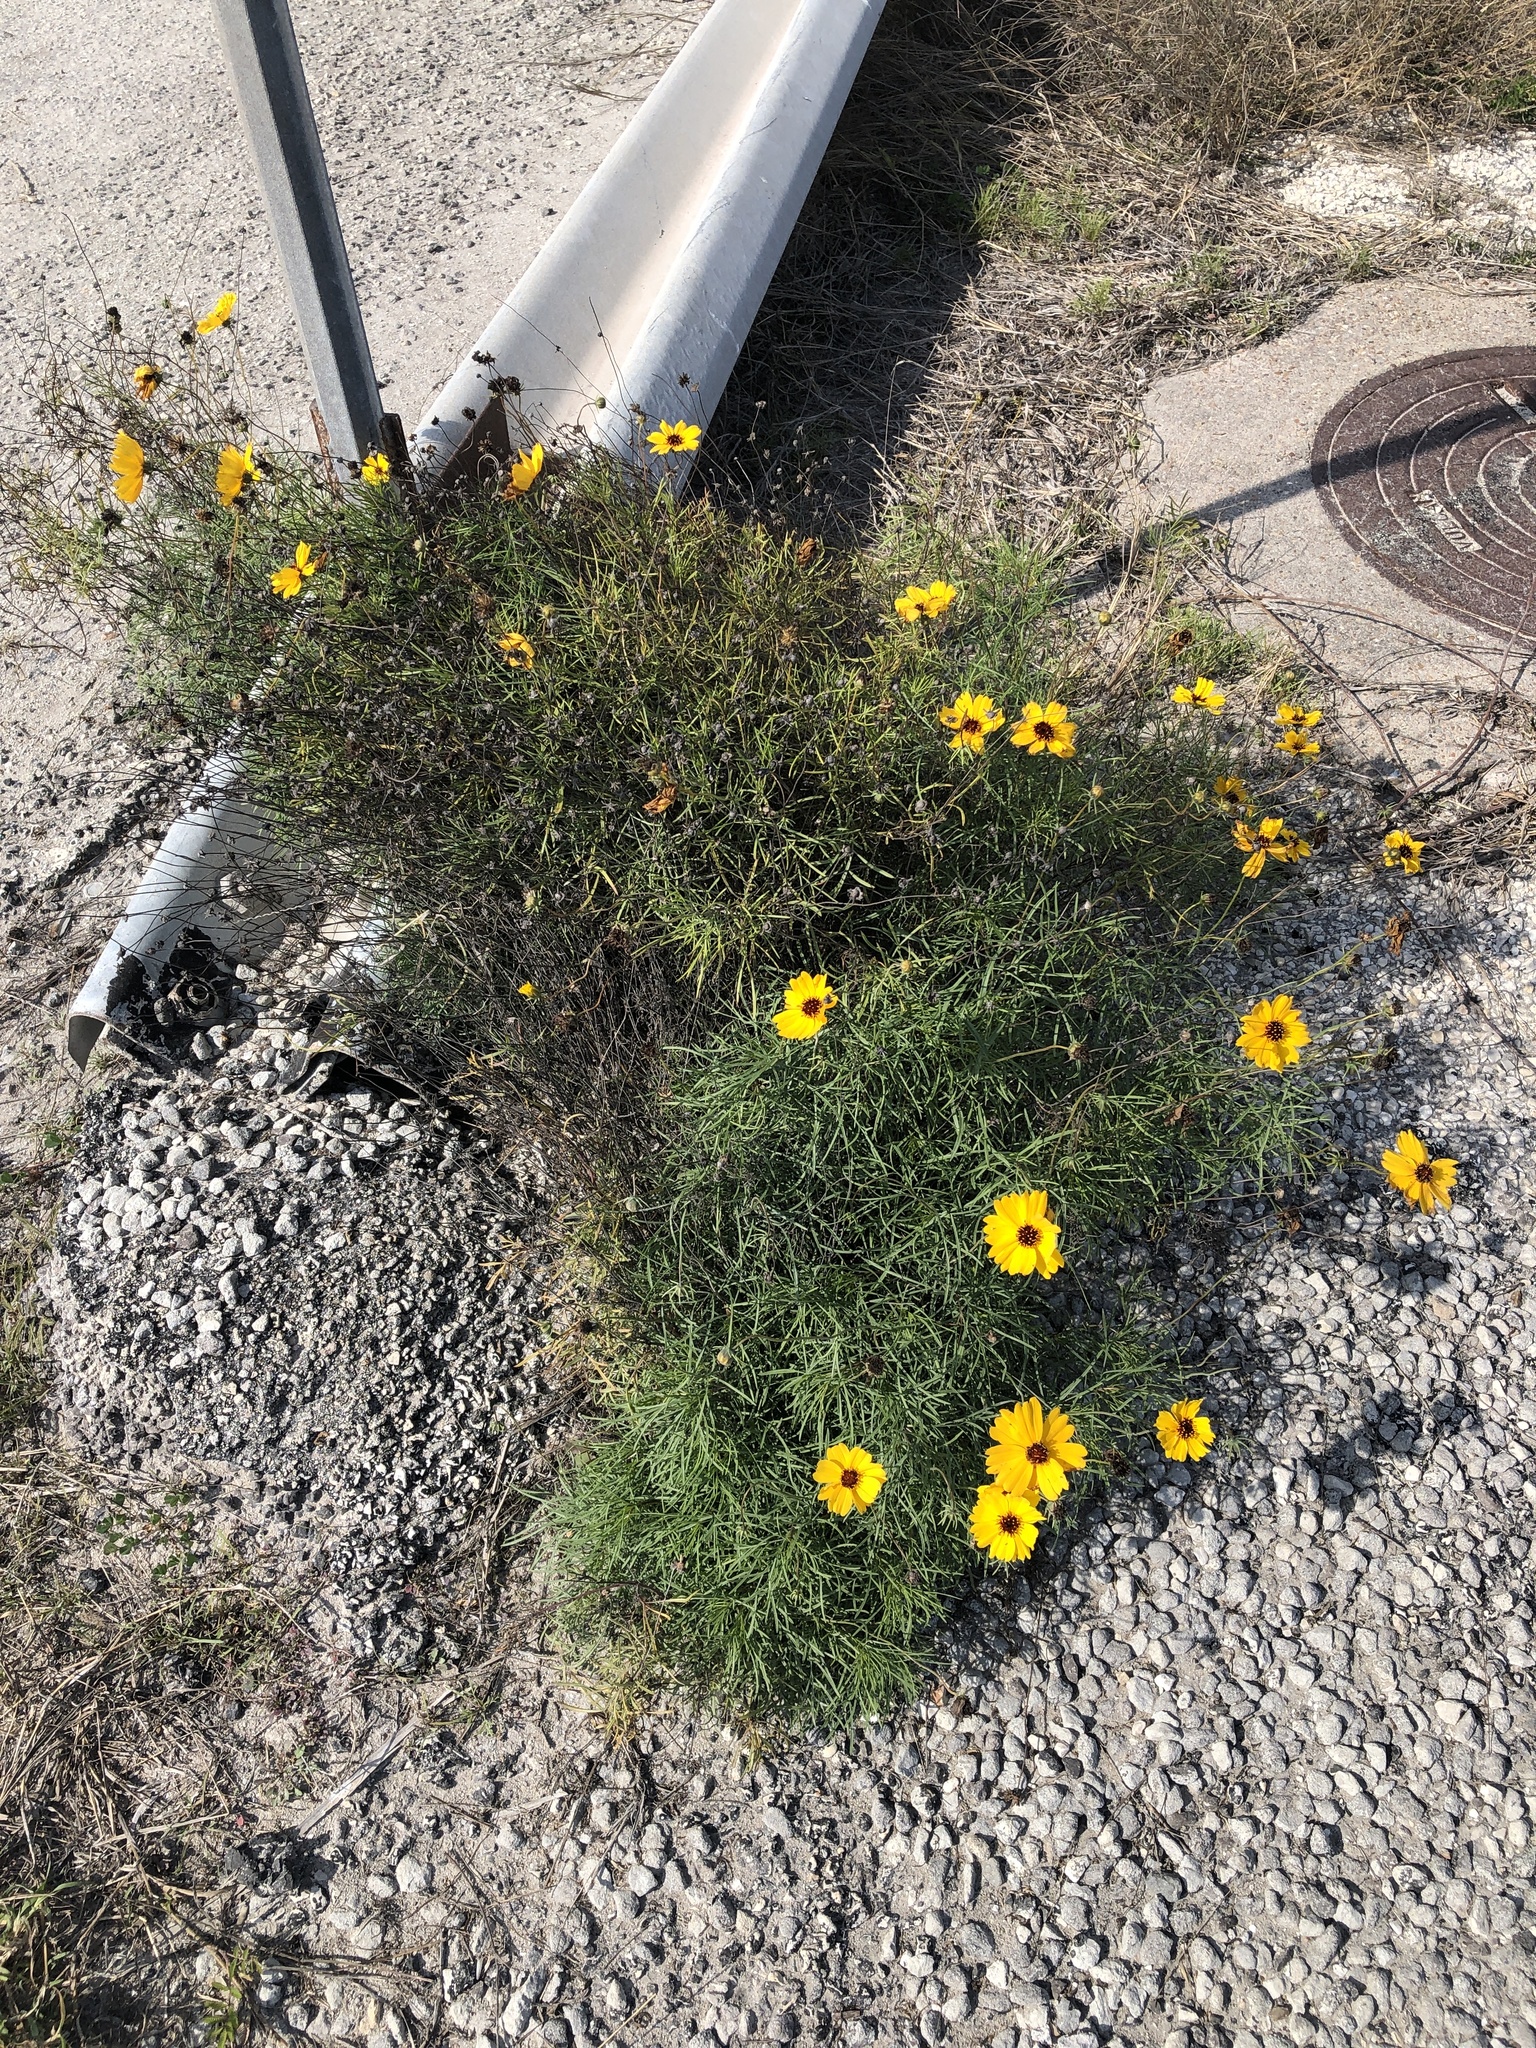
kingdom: Plantae
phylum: Tracheophyta
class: Magnoliopsida
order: Asterales
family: Asteraceae
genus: Thelesperma
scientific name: Thelesperma filifolium
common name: Stiff greenthread
